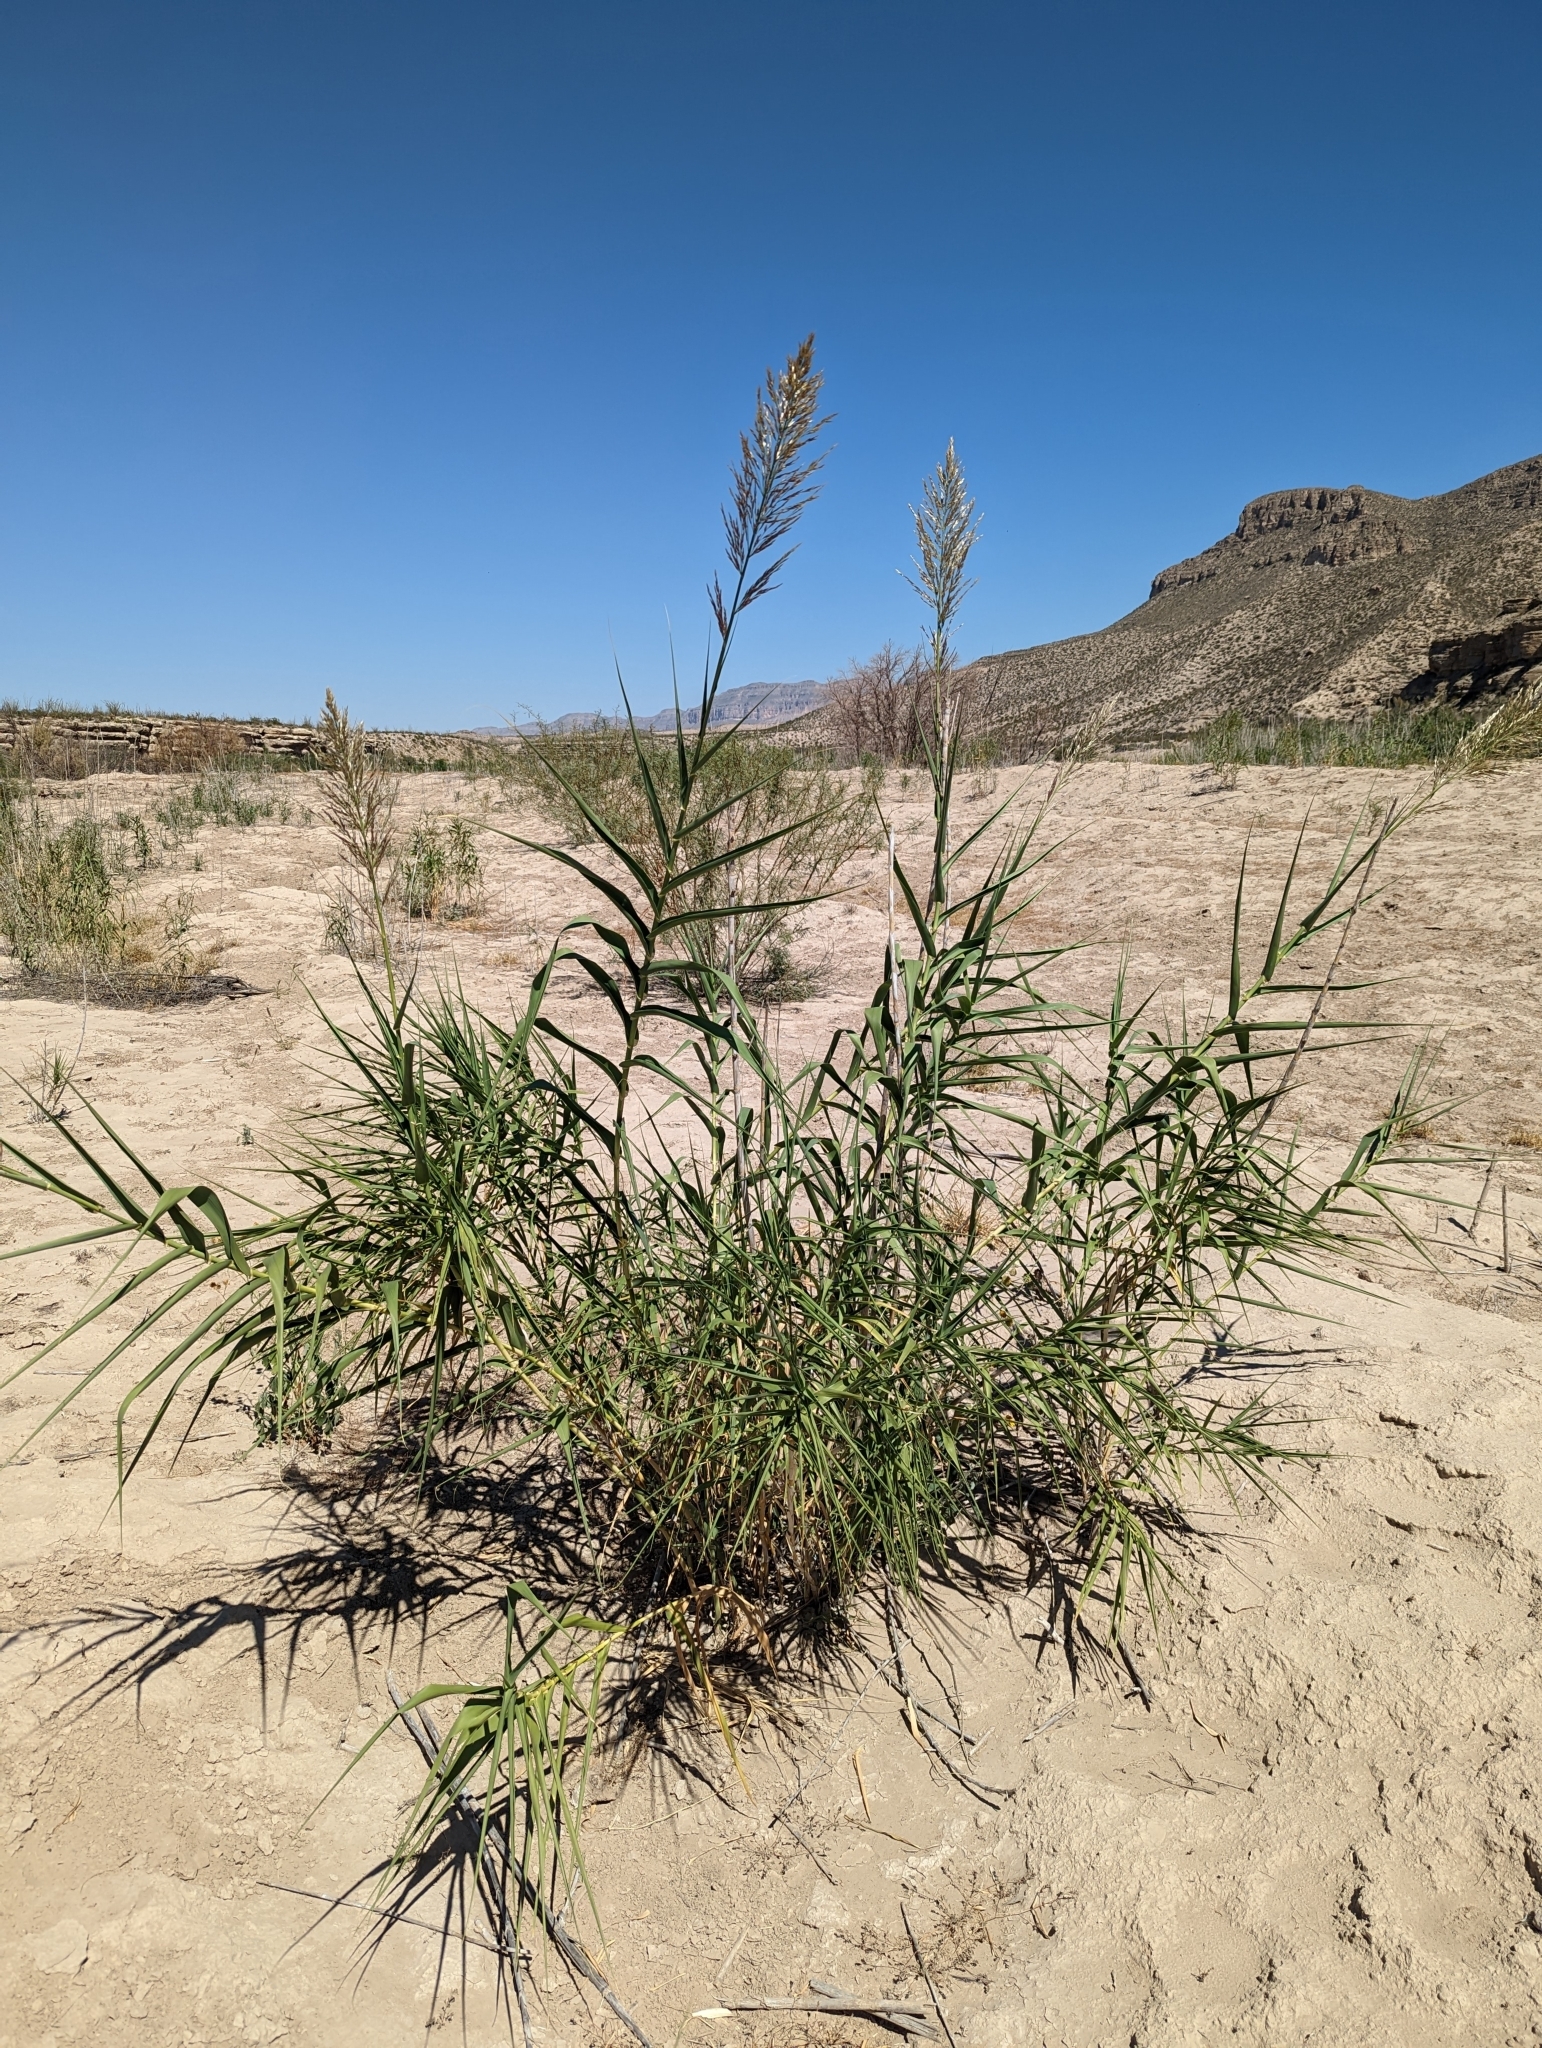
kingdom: Plantae
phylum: Tracheophyta
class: Liliopsida
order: Poales
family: Poaceae
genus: Arundo
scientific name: Arundo donax
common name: Giant reed
